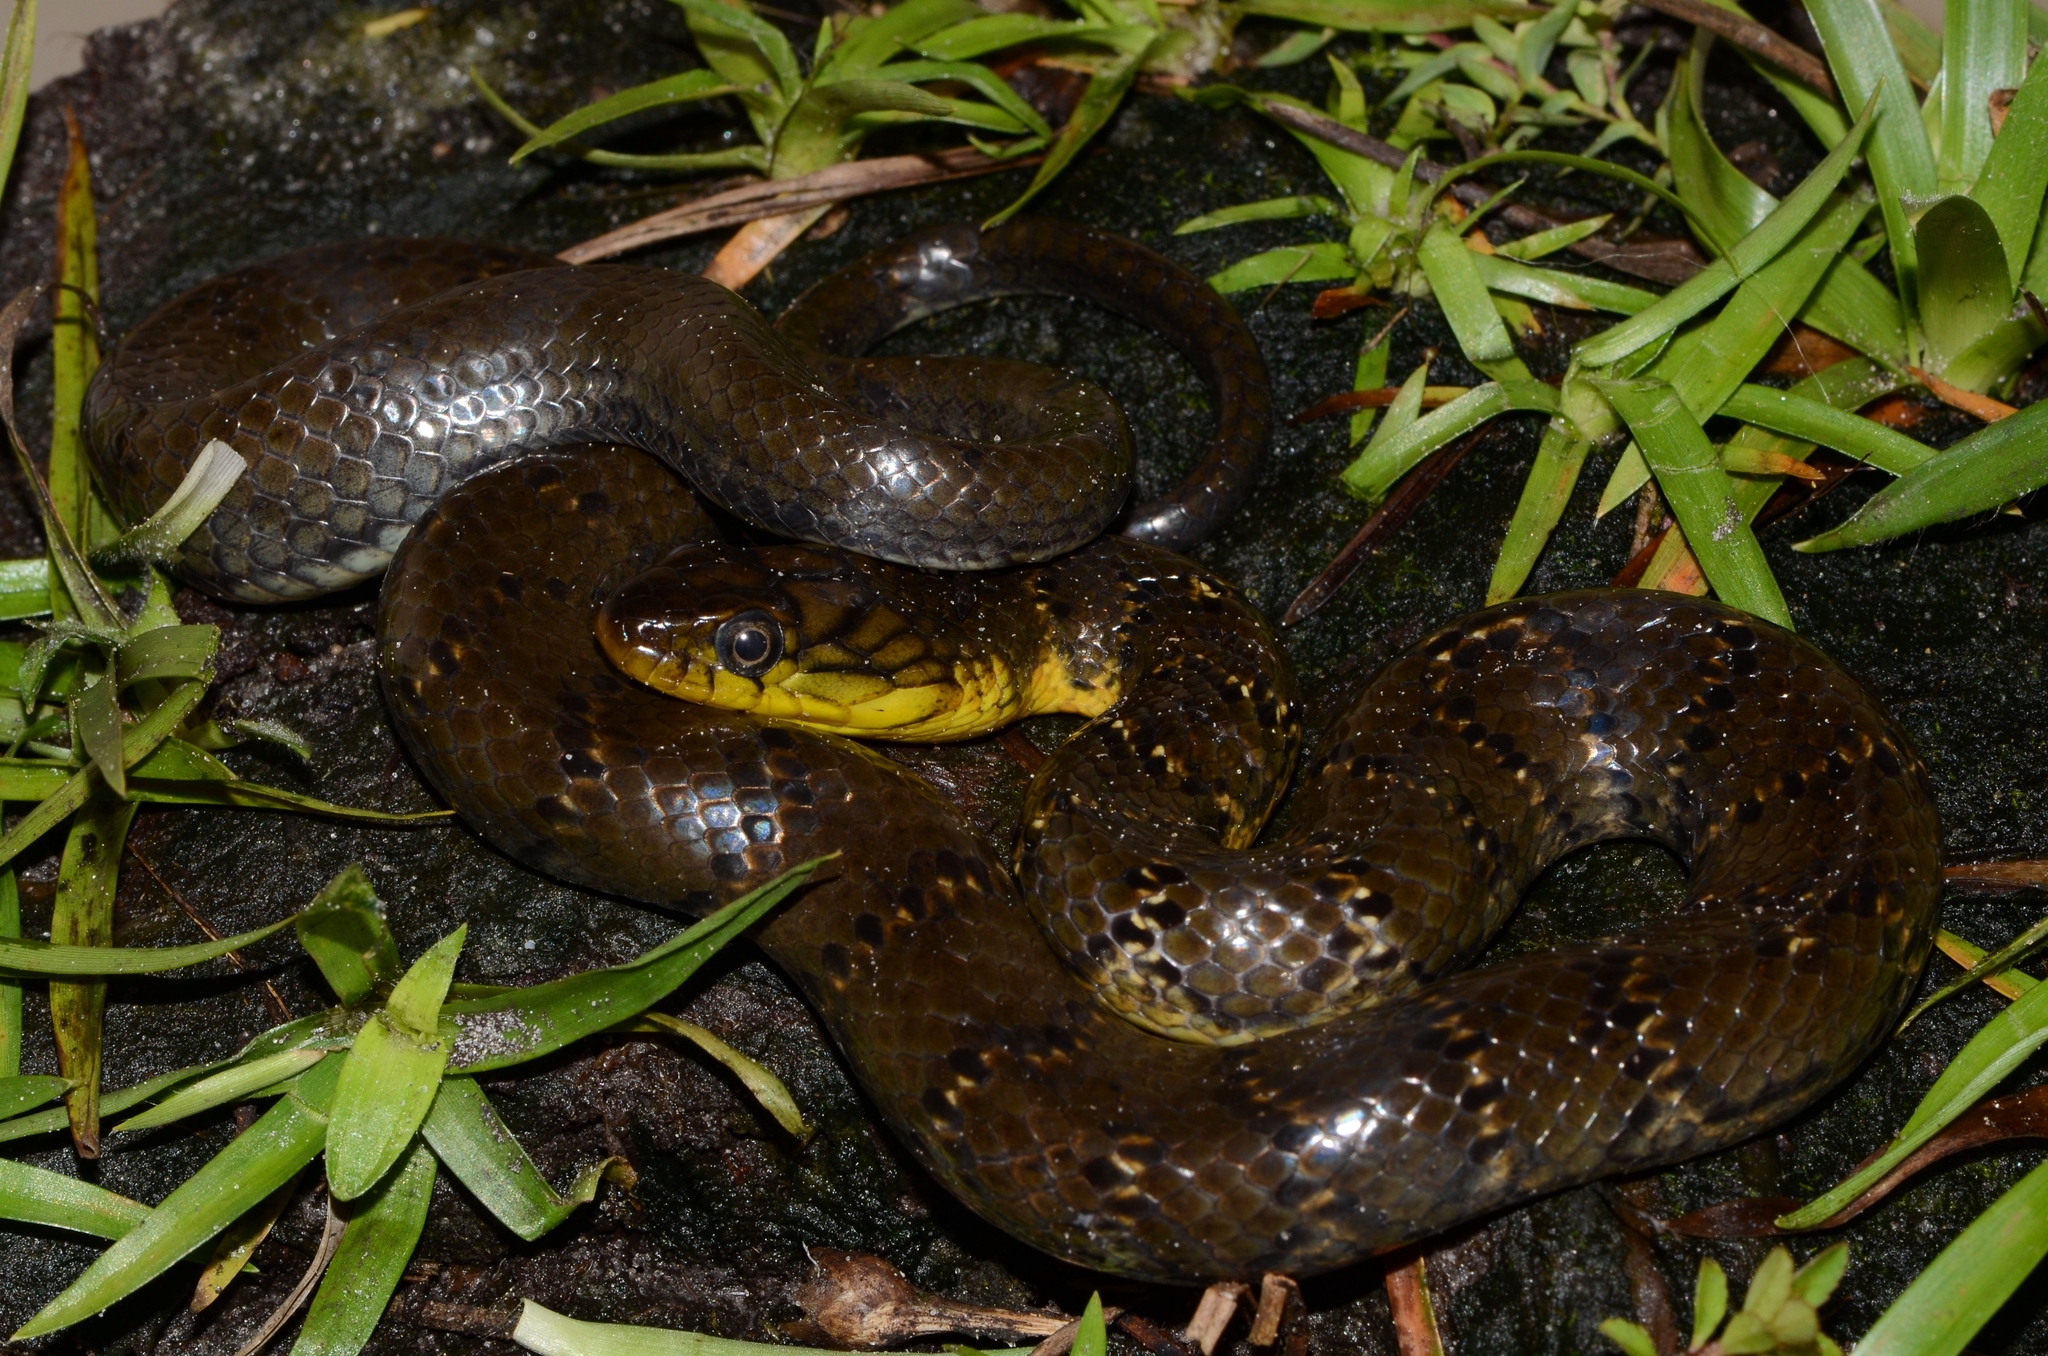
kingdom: Animalia
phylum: Chordata
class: Squamata
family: Colubridae
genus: Grayia
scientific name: Grayia smithii
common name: Smith's african water snake
